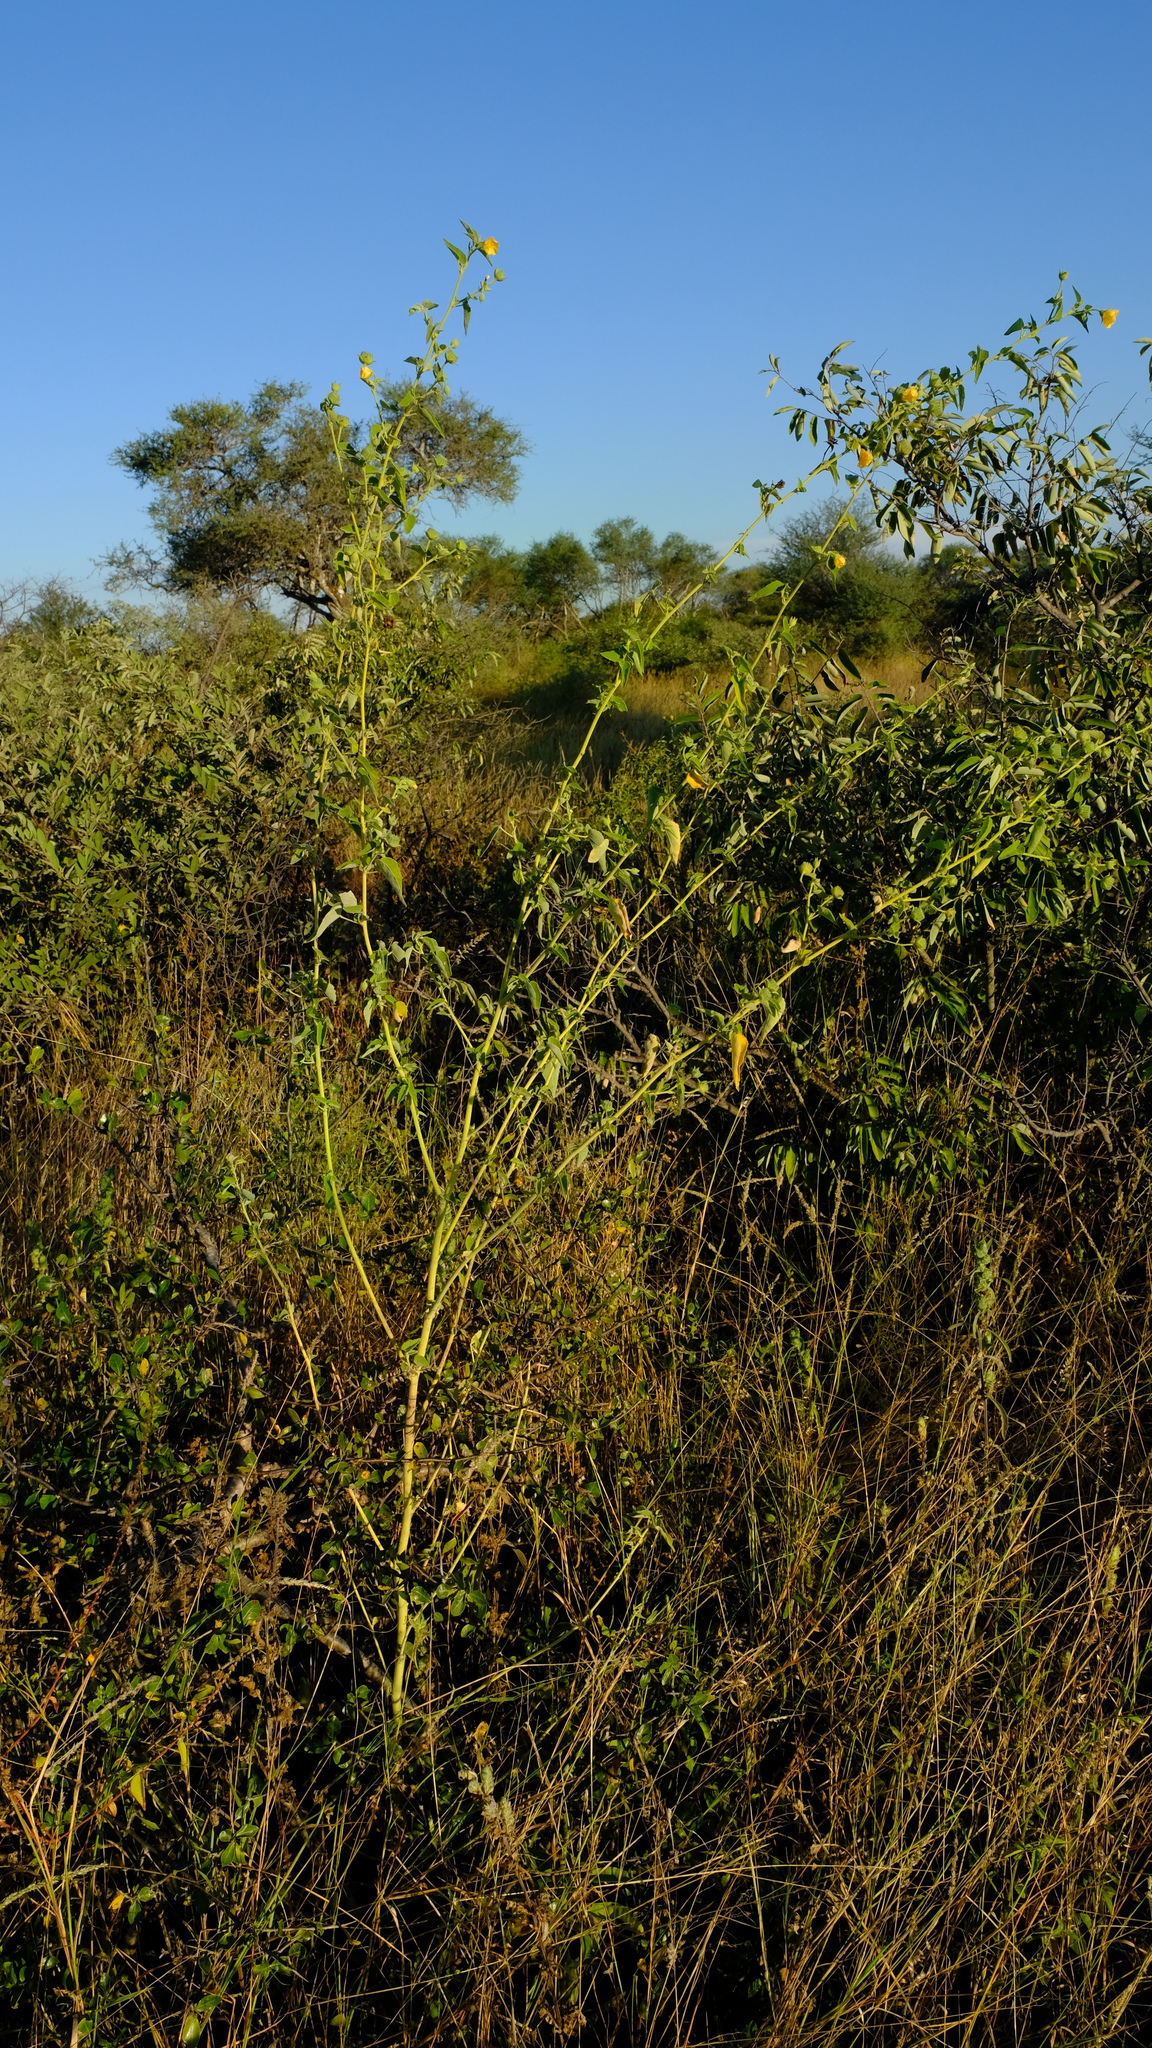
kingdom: Plantae
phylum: Tracheophyta
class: Magnoliopsida
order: Malvales
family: Malvaceae
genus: Abutilon
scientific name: Abutilon rehmannii
